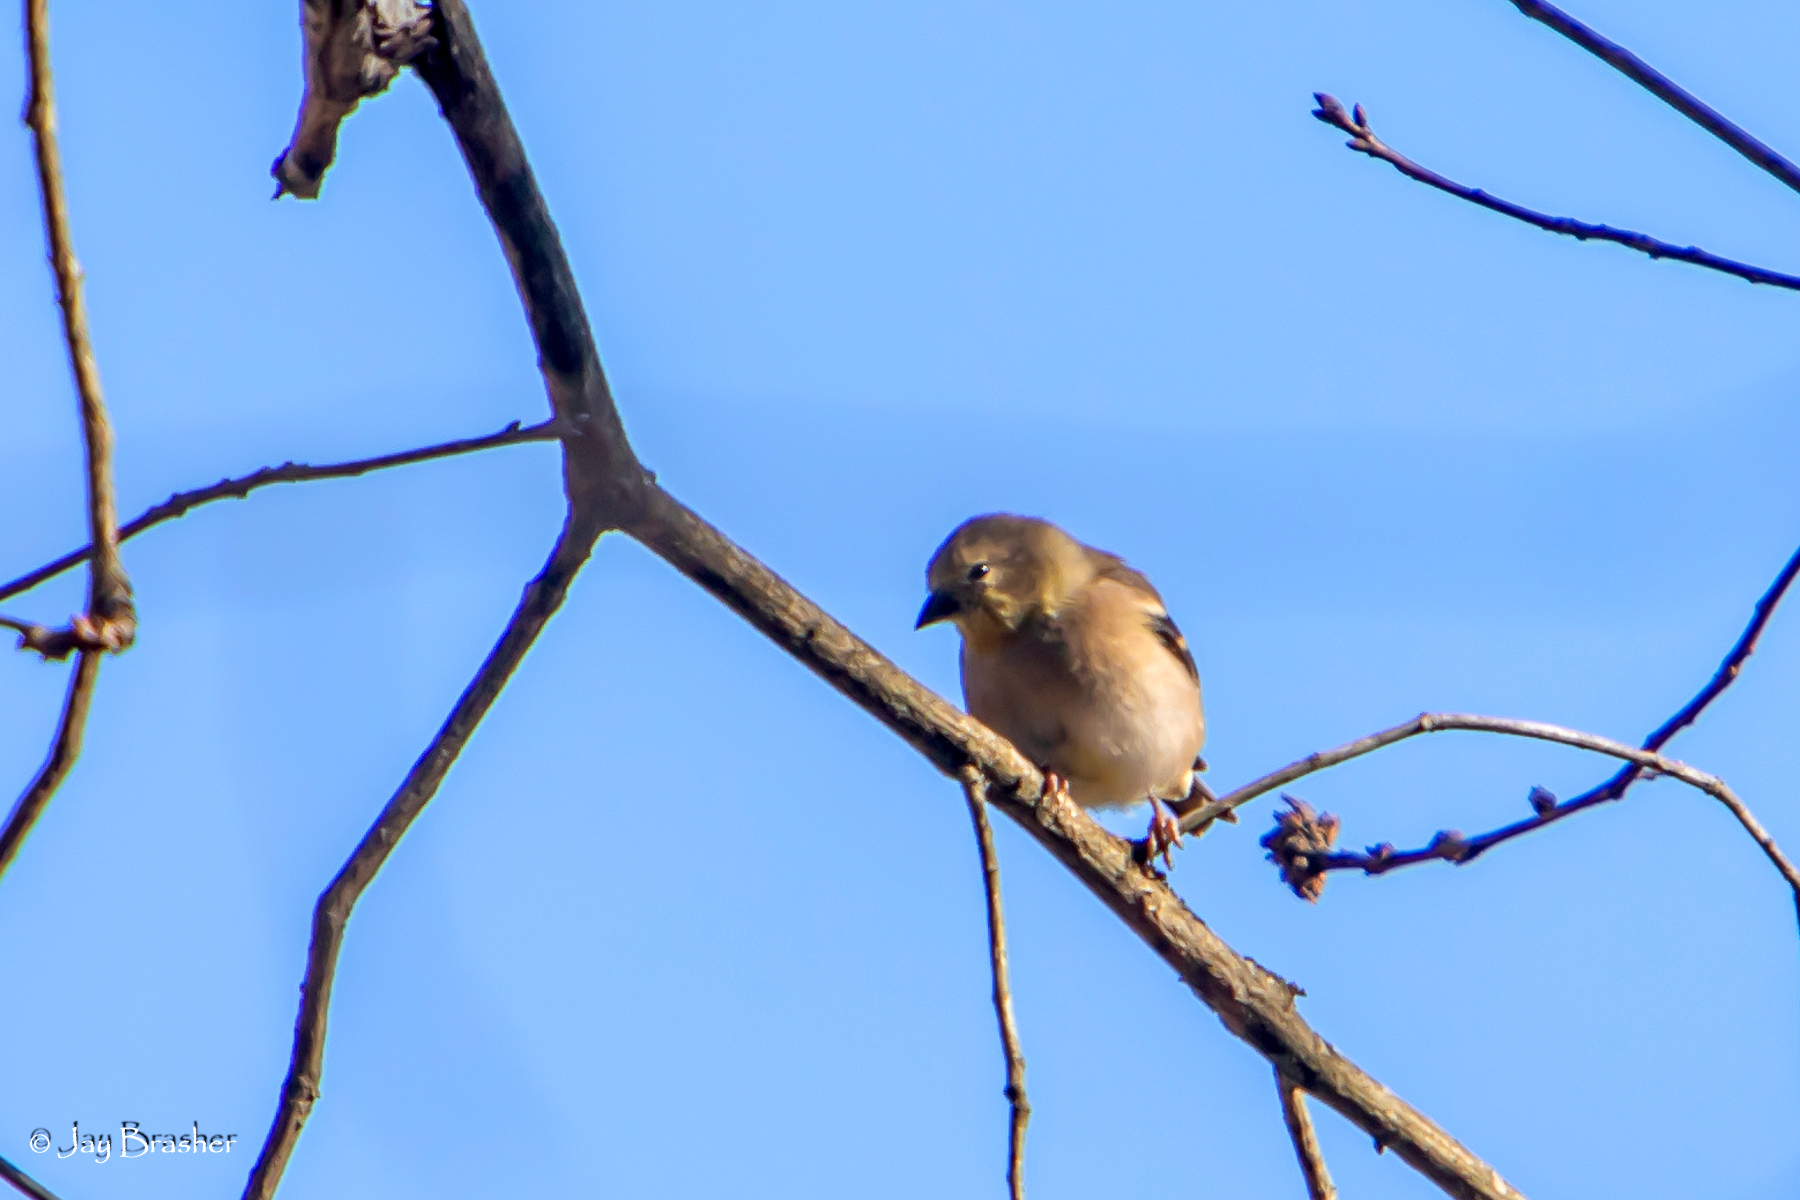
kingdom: Animalia
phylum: Chordata
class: Aves
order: Passeriformes
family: Fringillidae
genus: Spinus
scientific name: Spinus tristis
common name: American goldfinch
